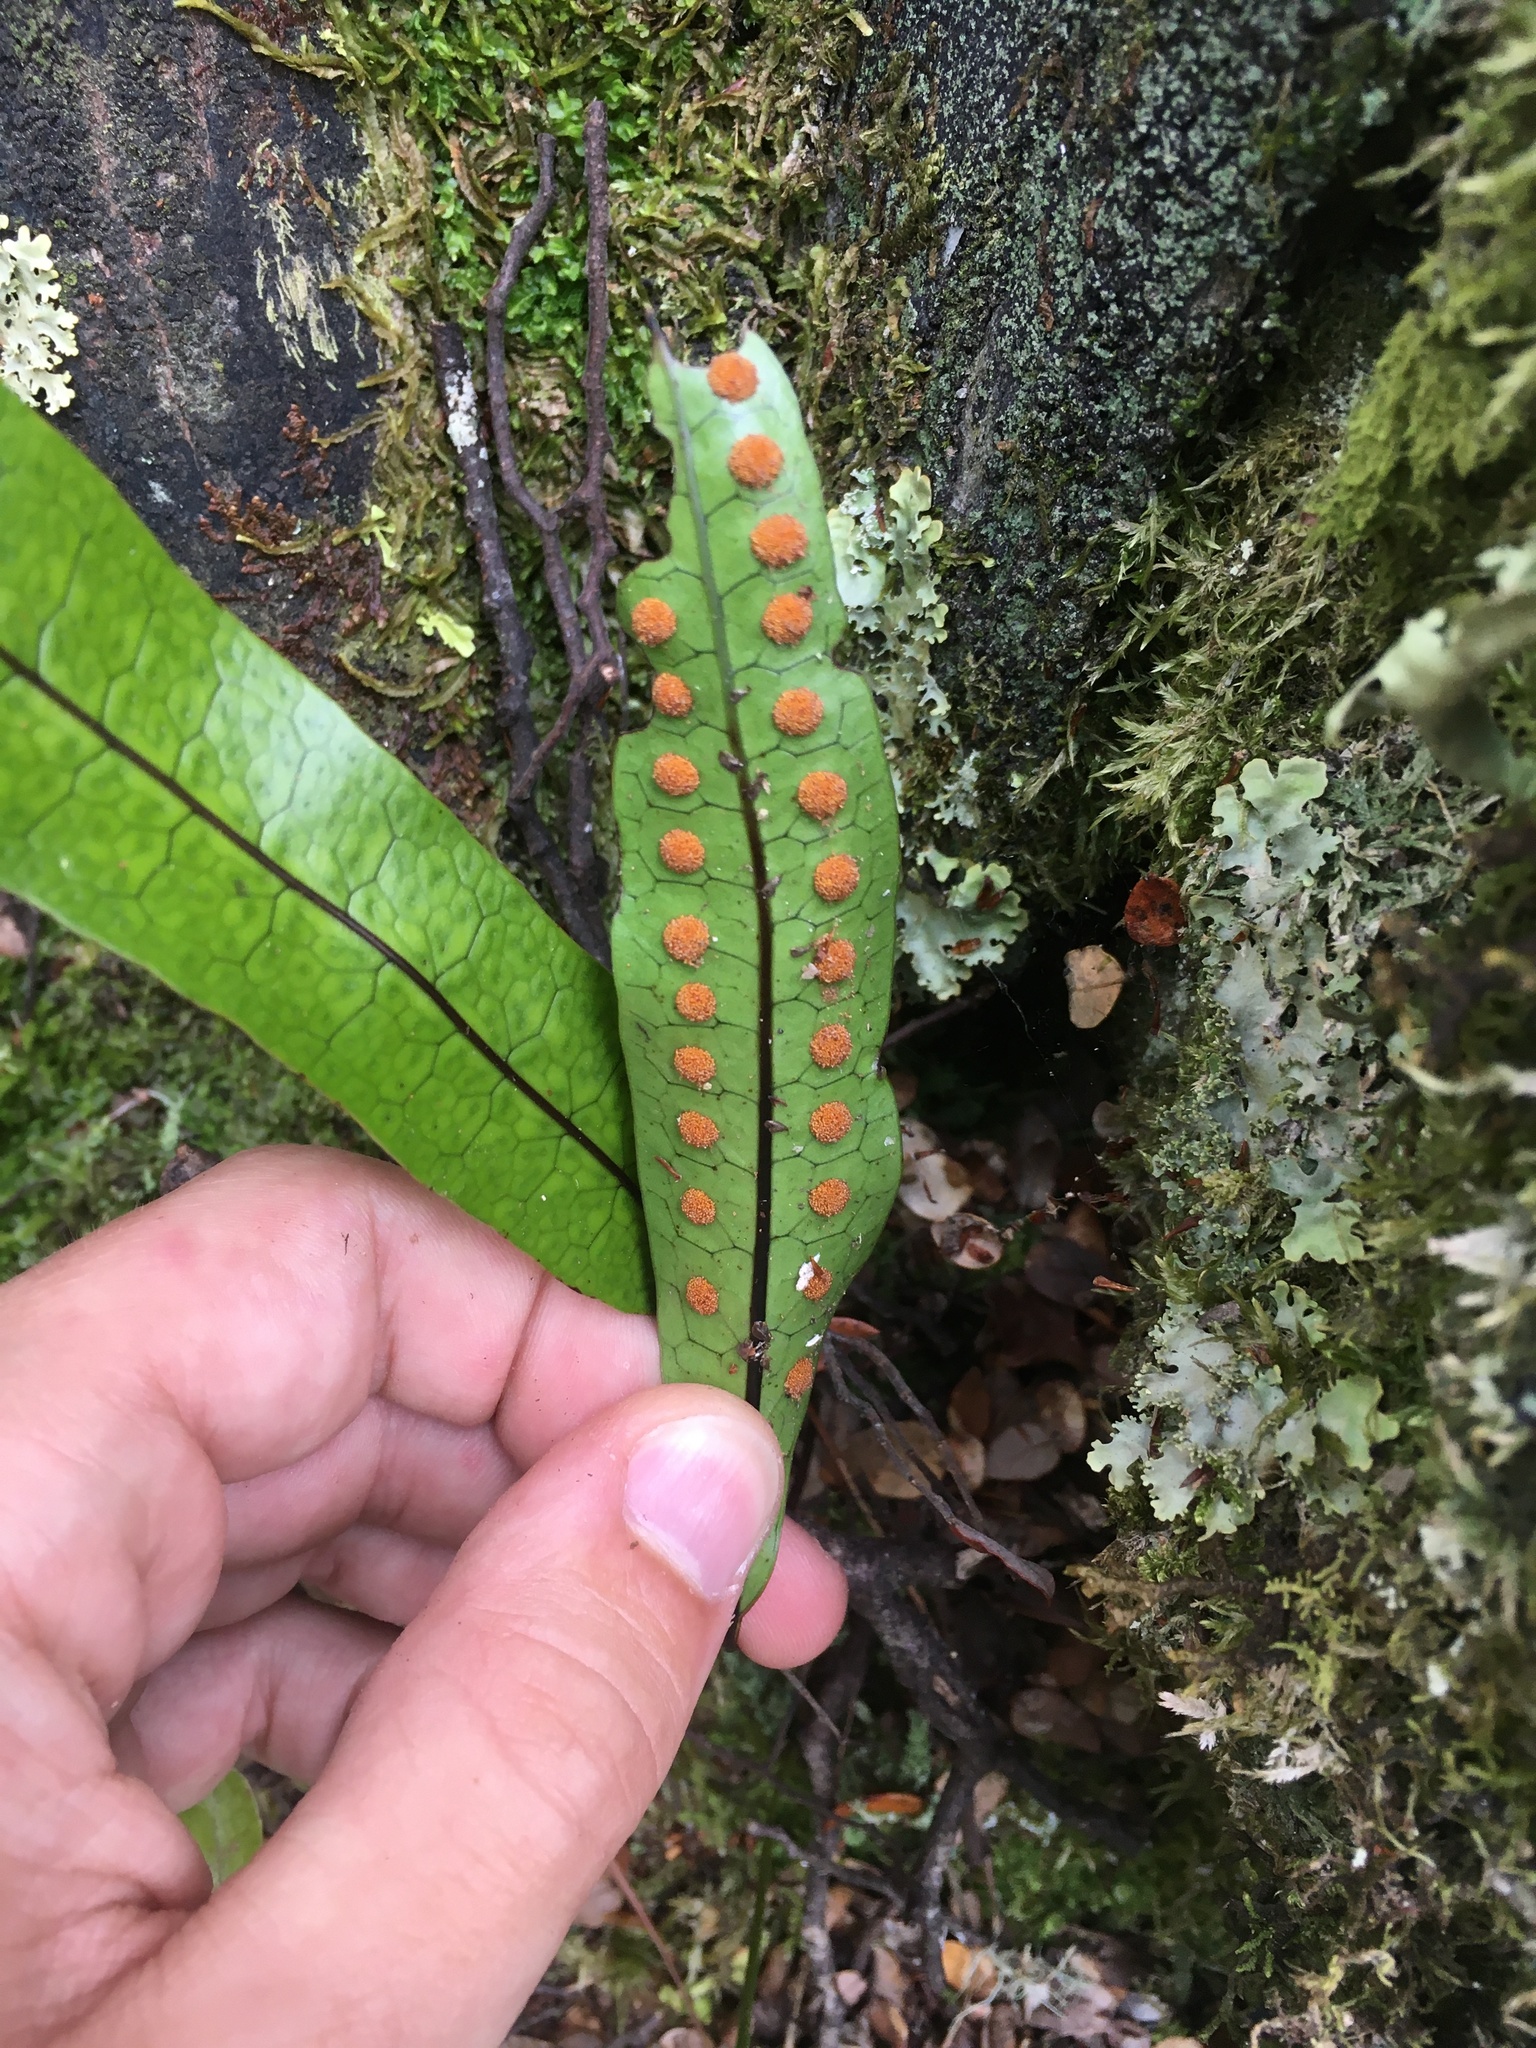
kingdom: Plantae
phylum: Tracheophyta
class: Polypodiopsida
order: Polypodiales
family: Polypodiaceae
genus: Lecanopteris
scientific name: Lecanopteris pustulata
